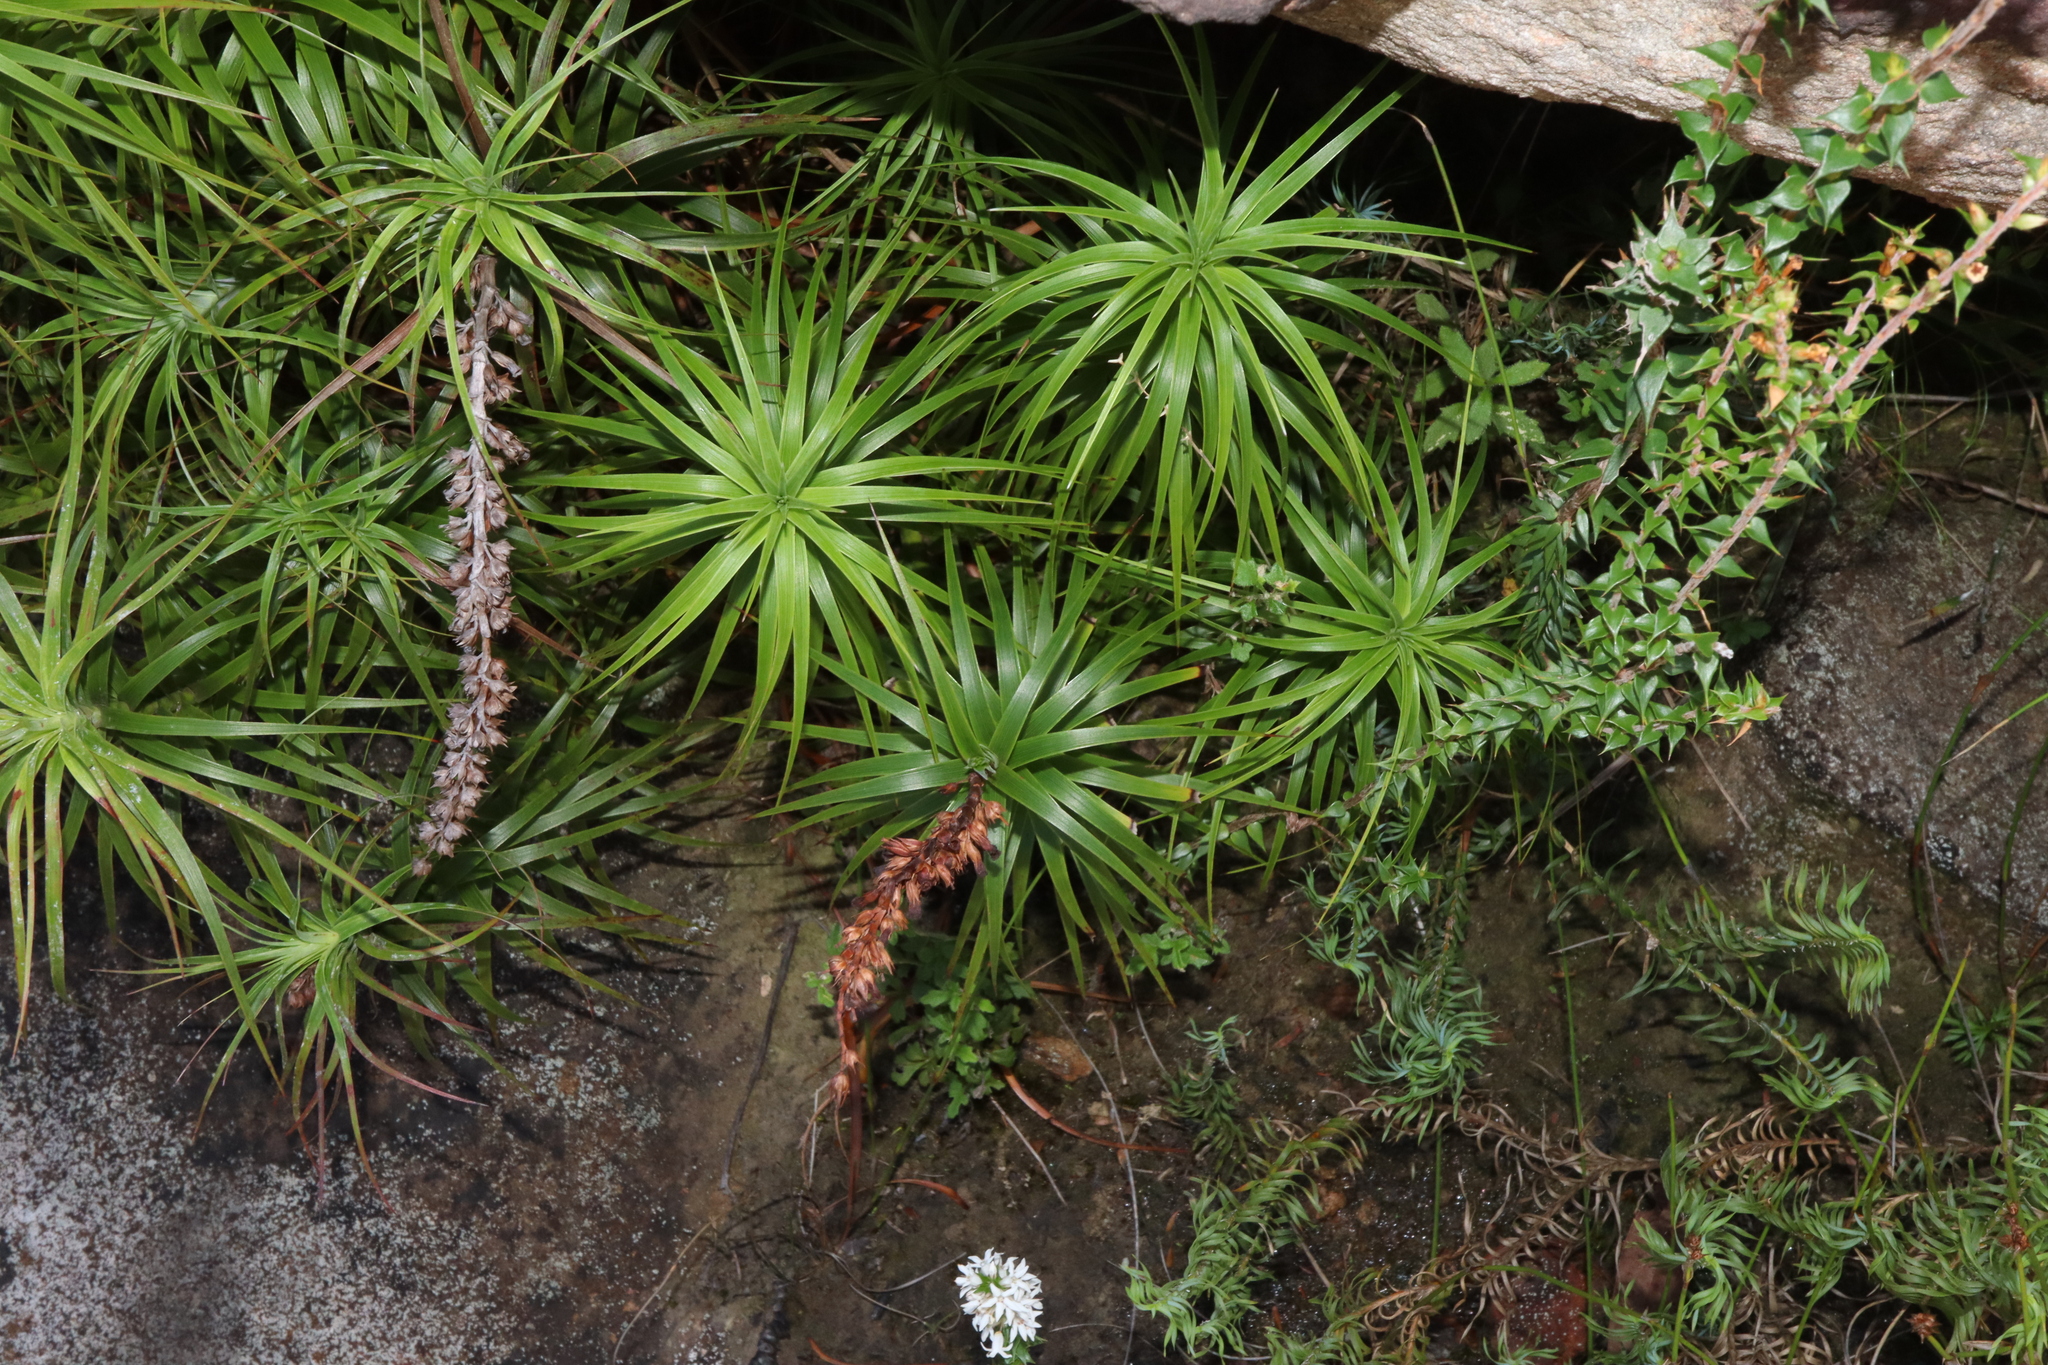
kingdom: Plantae
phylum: Tracheophyta
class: Magnoliopsida
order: Ericales
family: Ericaceae
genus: Dracophyllum
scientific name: Dracophyllum secundum
